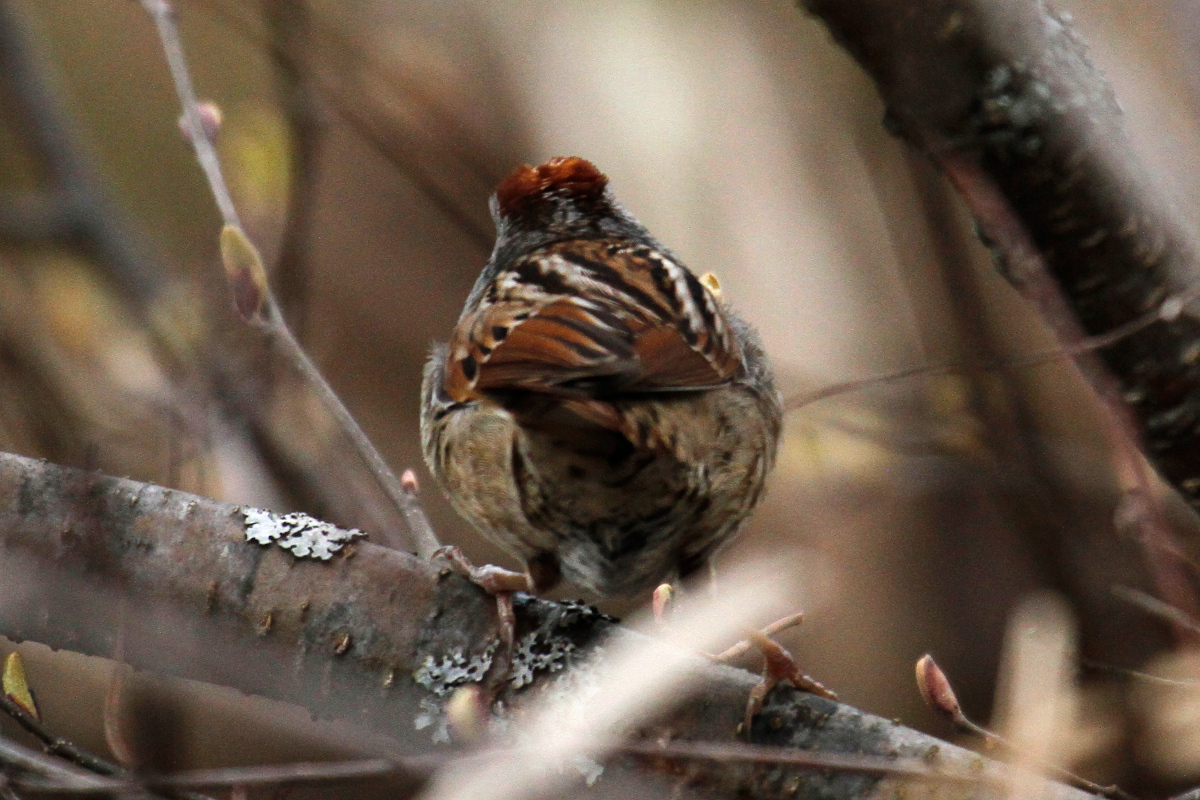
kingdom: Animalia
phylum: Chordata
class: Aves
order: Passeriformes
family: Passerellidae
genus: Melospiza
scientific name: Melospiza georgiana
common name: Swamp sparrow
